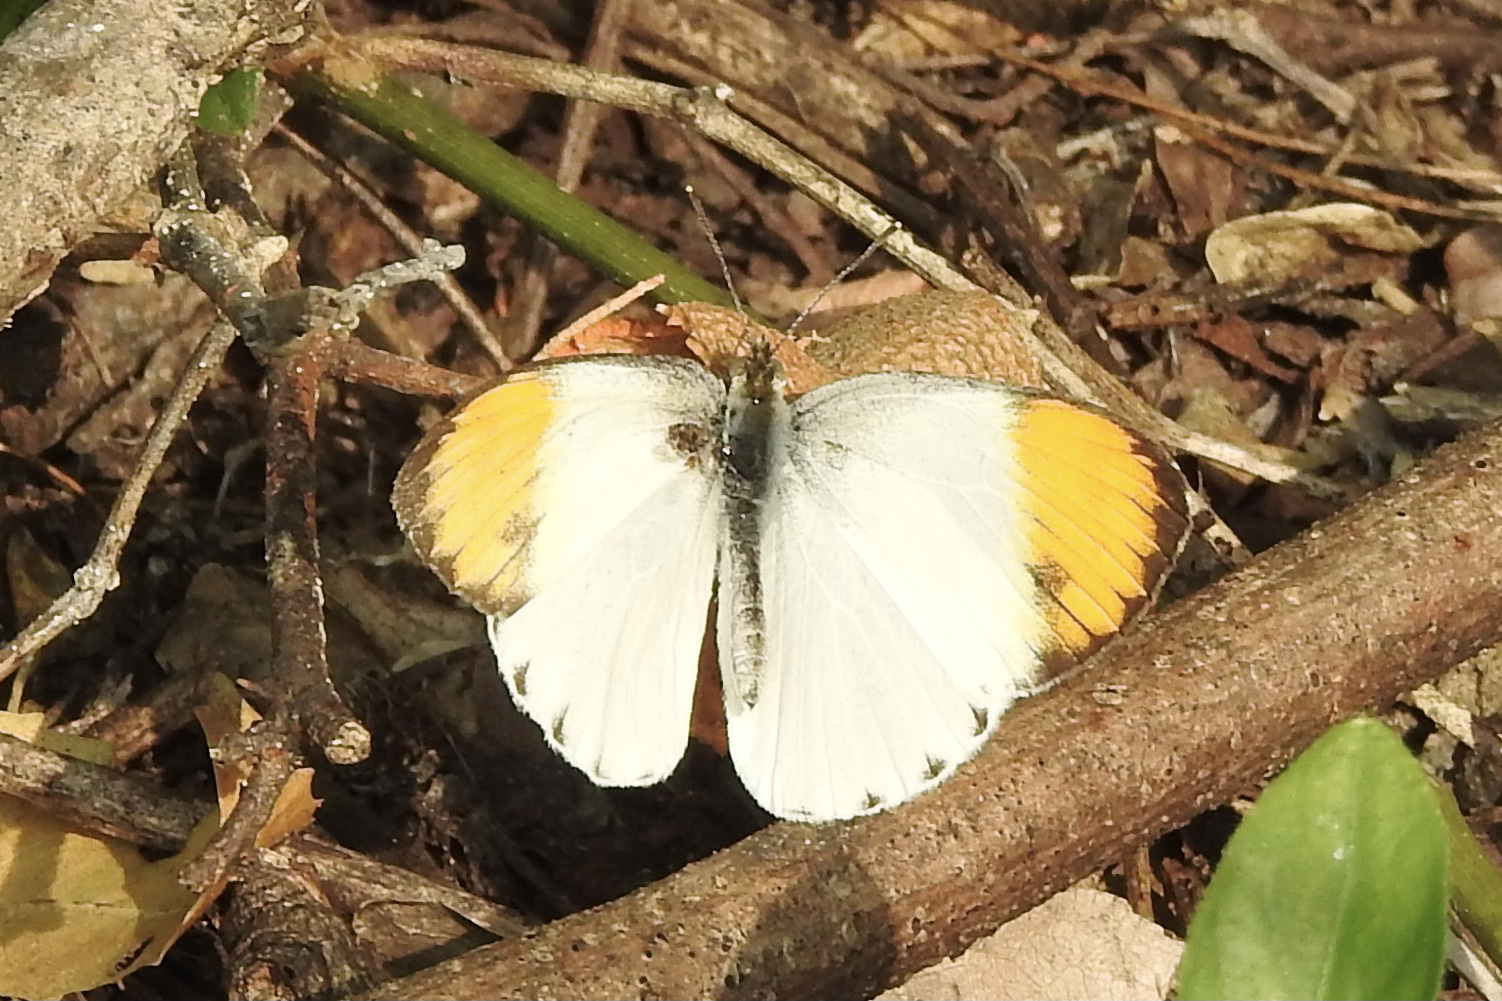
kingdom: Animalia
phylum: Arthropoda
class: Insecta
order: Lepidoptera
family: Pieridae
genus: Colotis
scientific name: Colotis aurora
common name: Plain orange-tip
